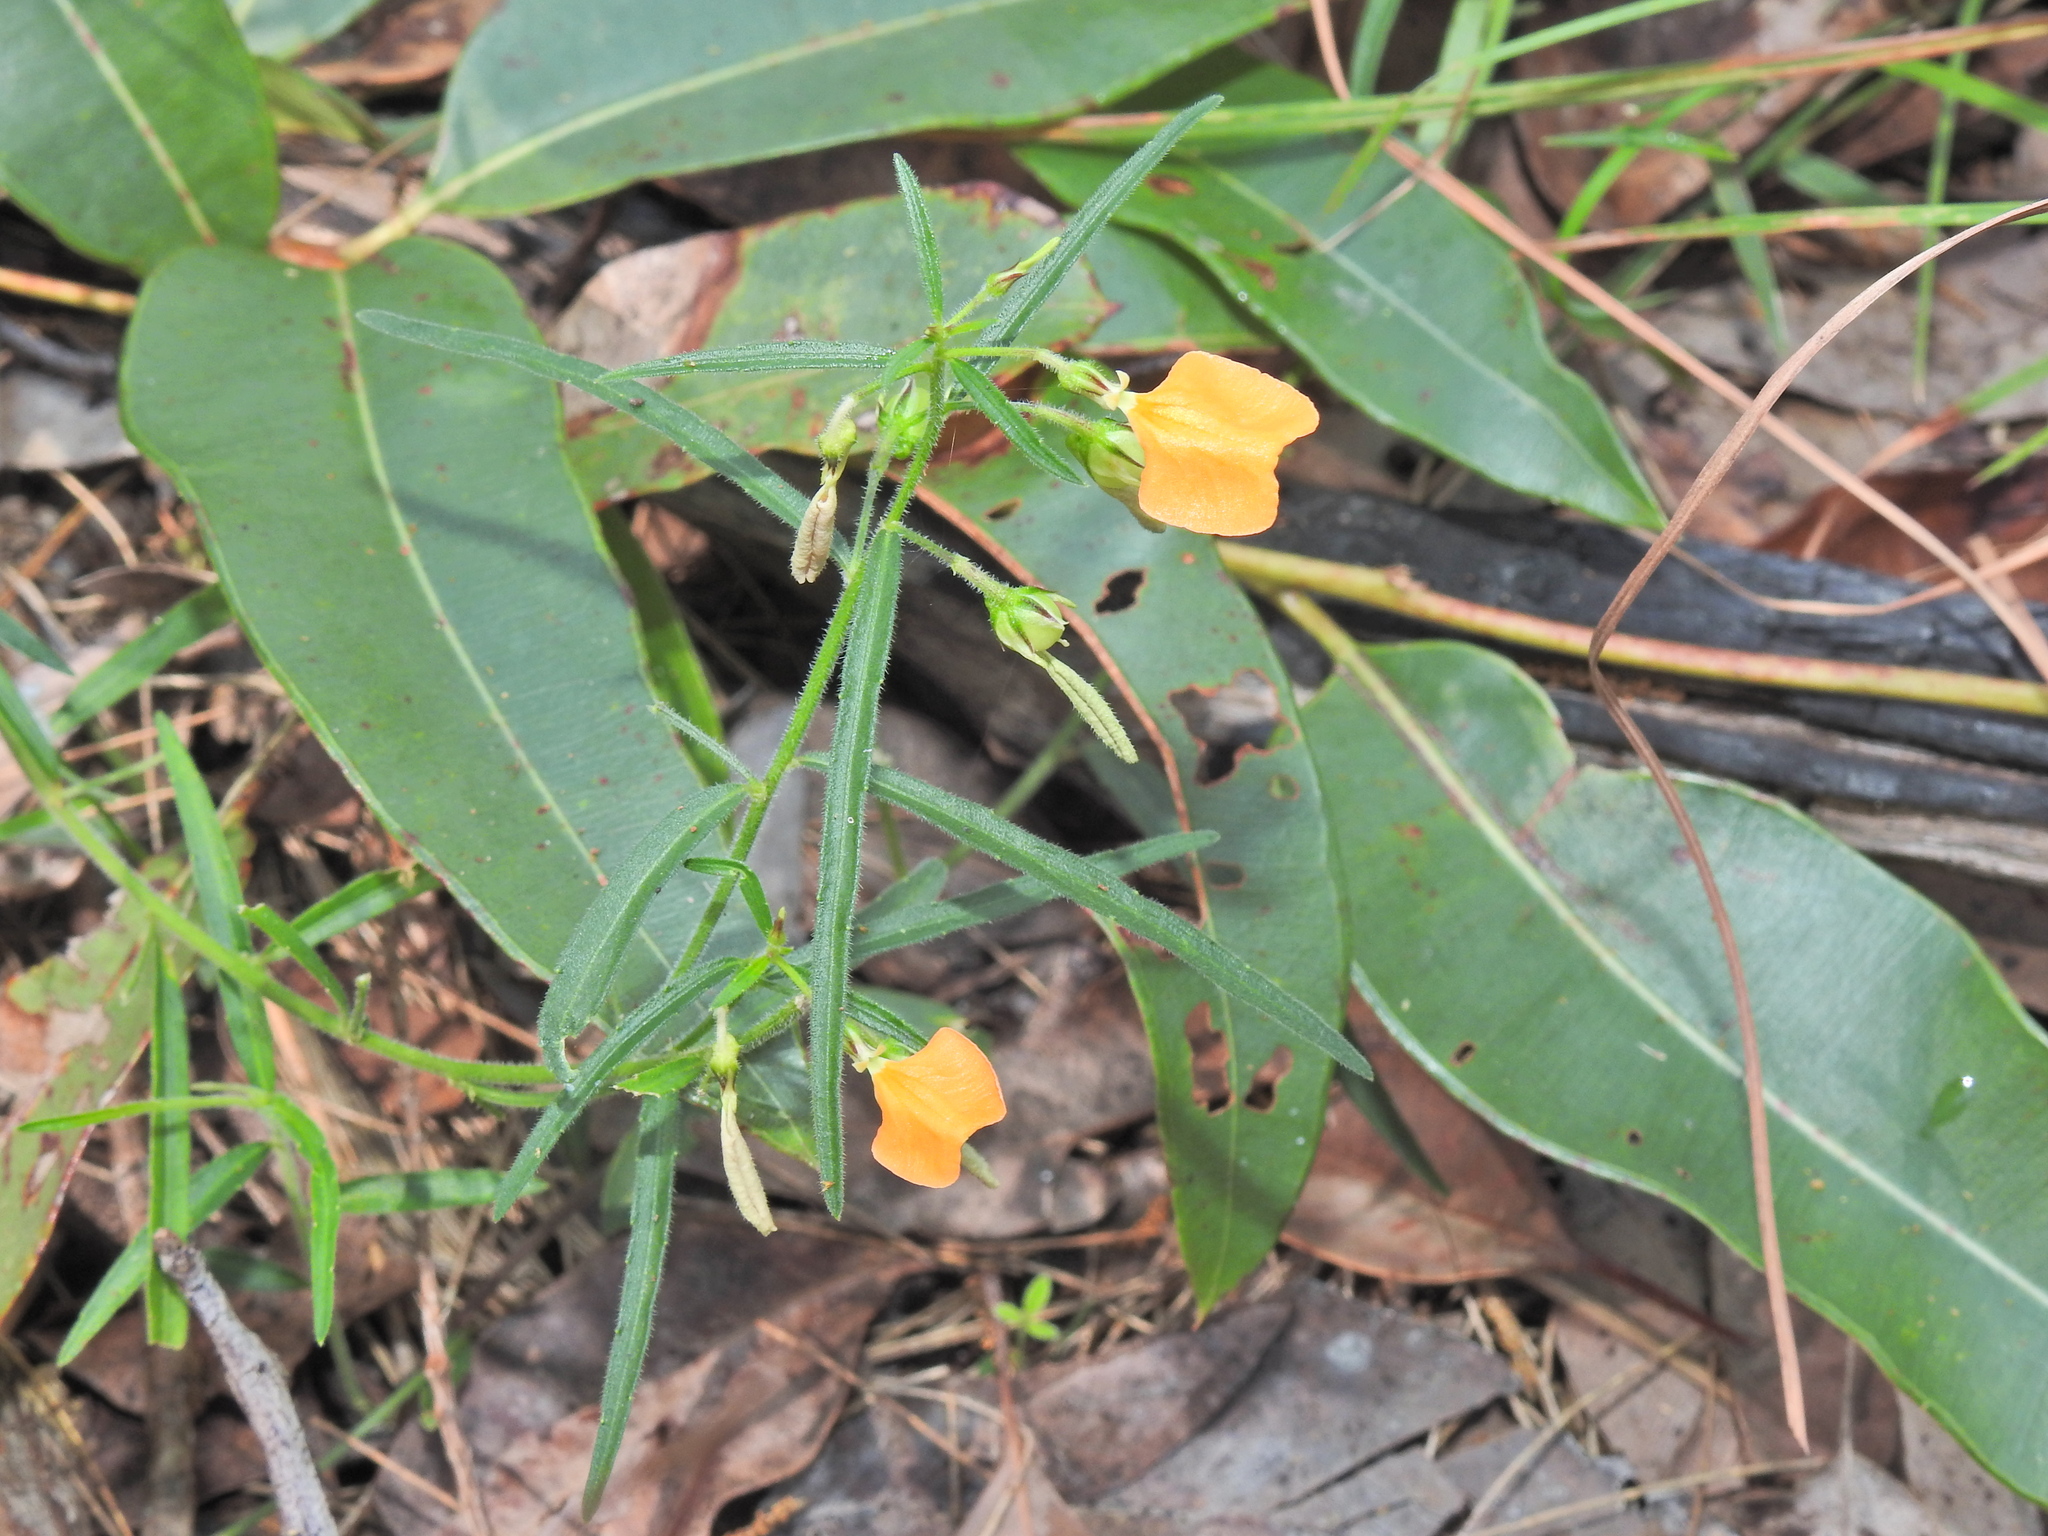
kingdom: Plantae
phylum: Tracheophyta
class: Magnoliopsida
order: Malpighiales
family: Violaceae
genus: Pigea
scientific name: Pigea stellarioides
